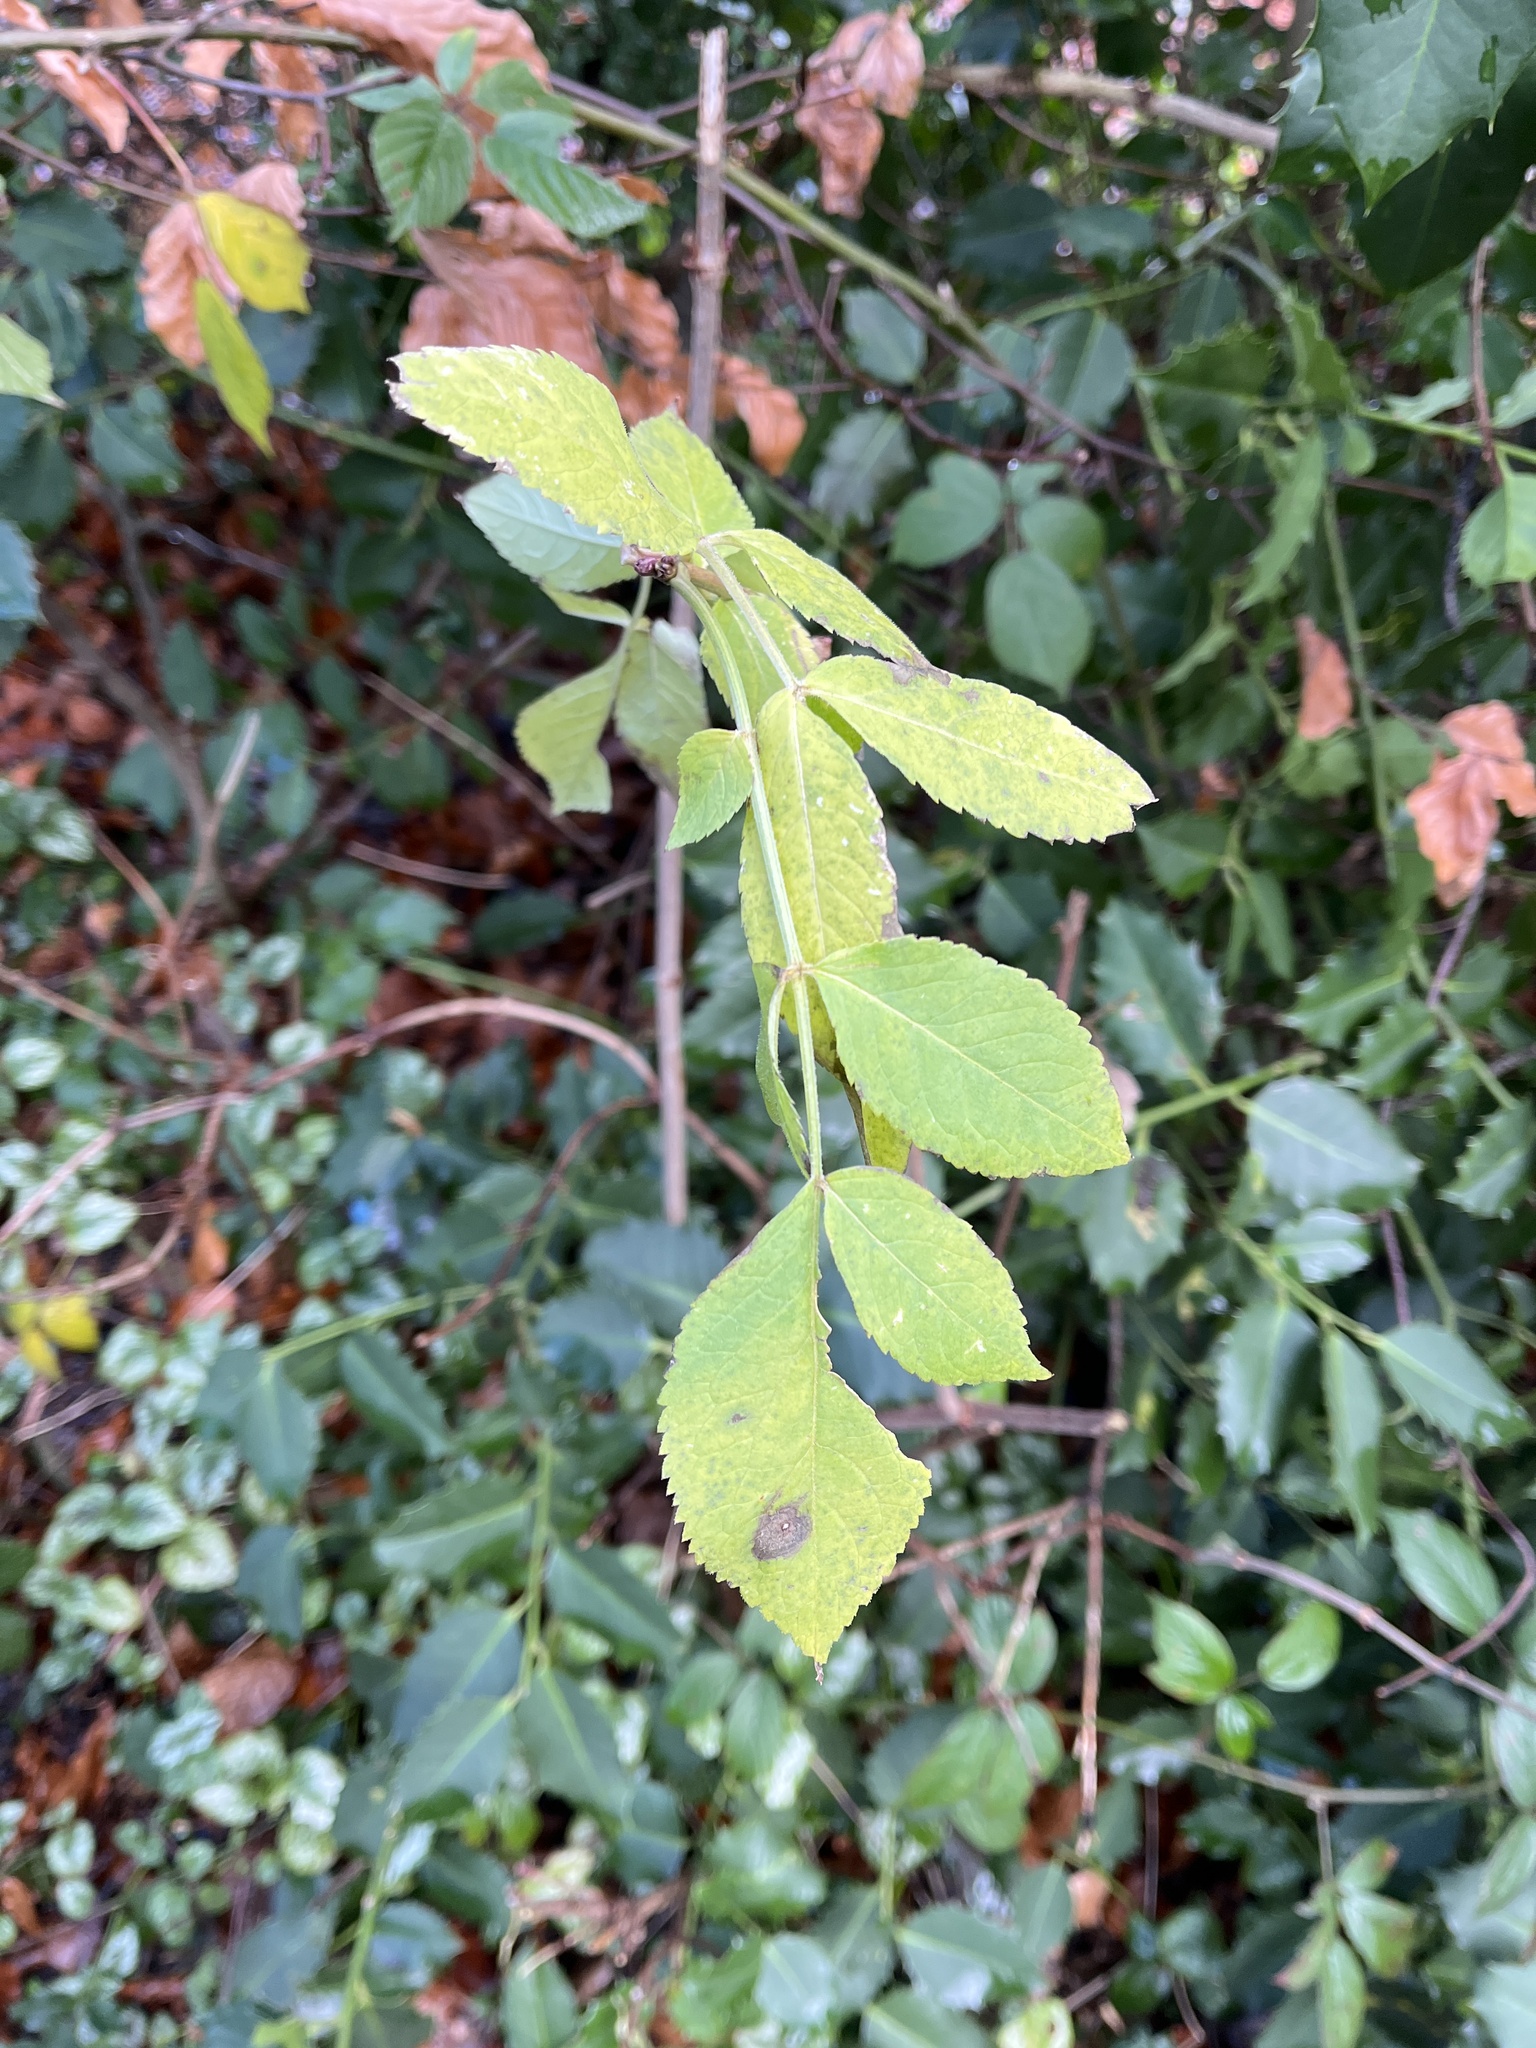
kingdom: Plantae
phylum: Tracheophyta
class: Magnoliopsida
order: Dipsacales
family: Viburnaceae
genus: Sambucus
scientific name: Sambucus nigra
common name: Elder
